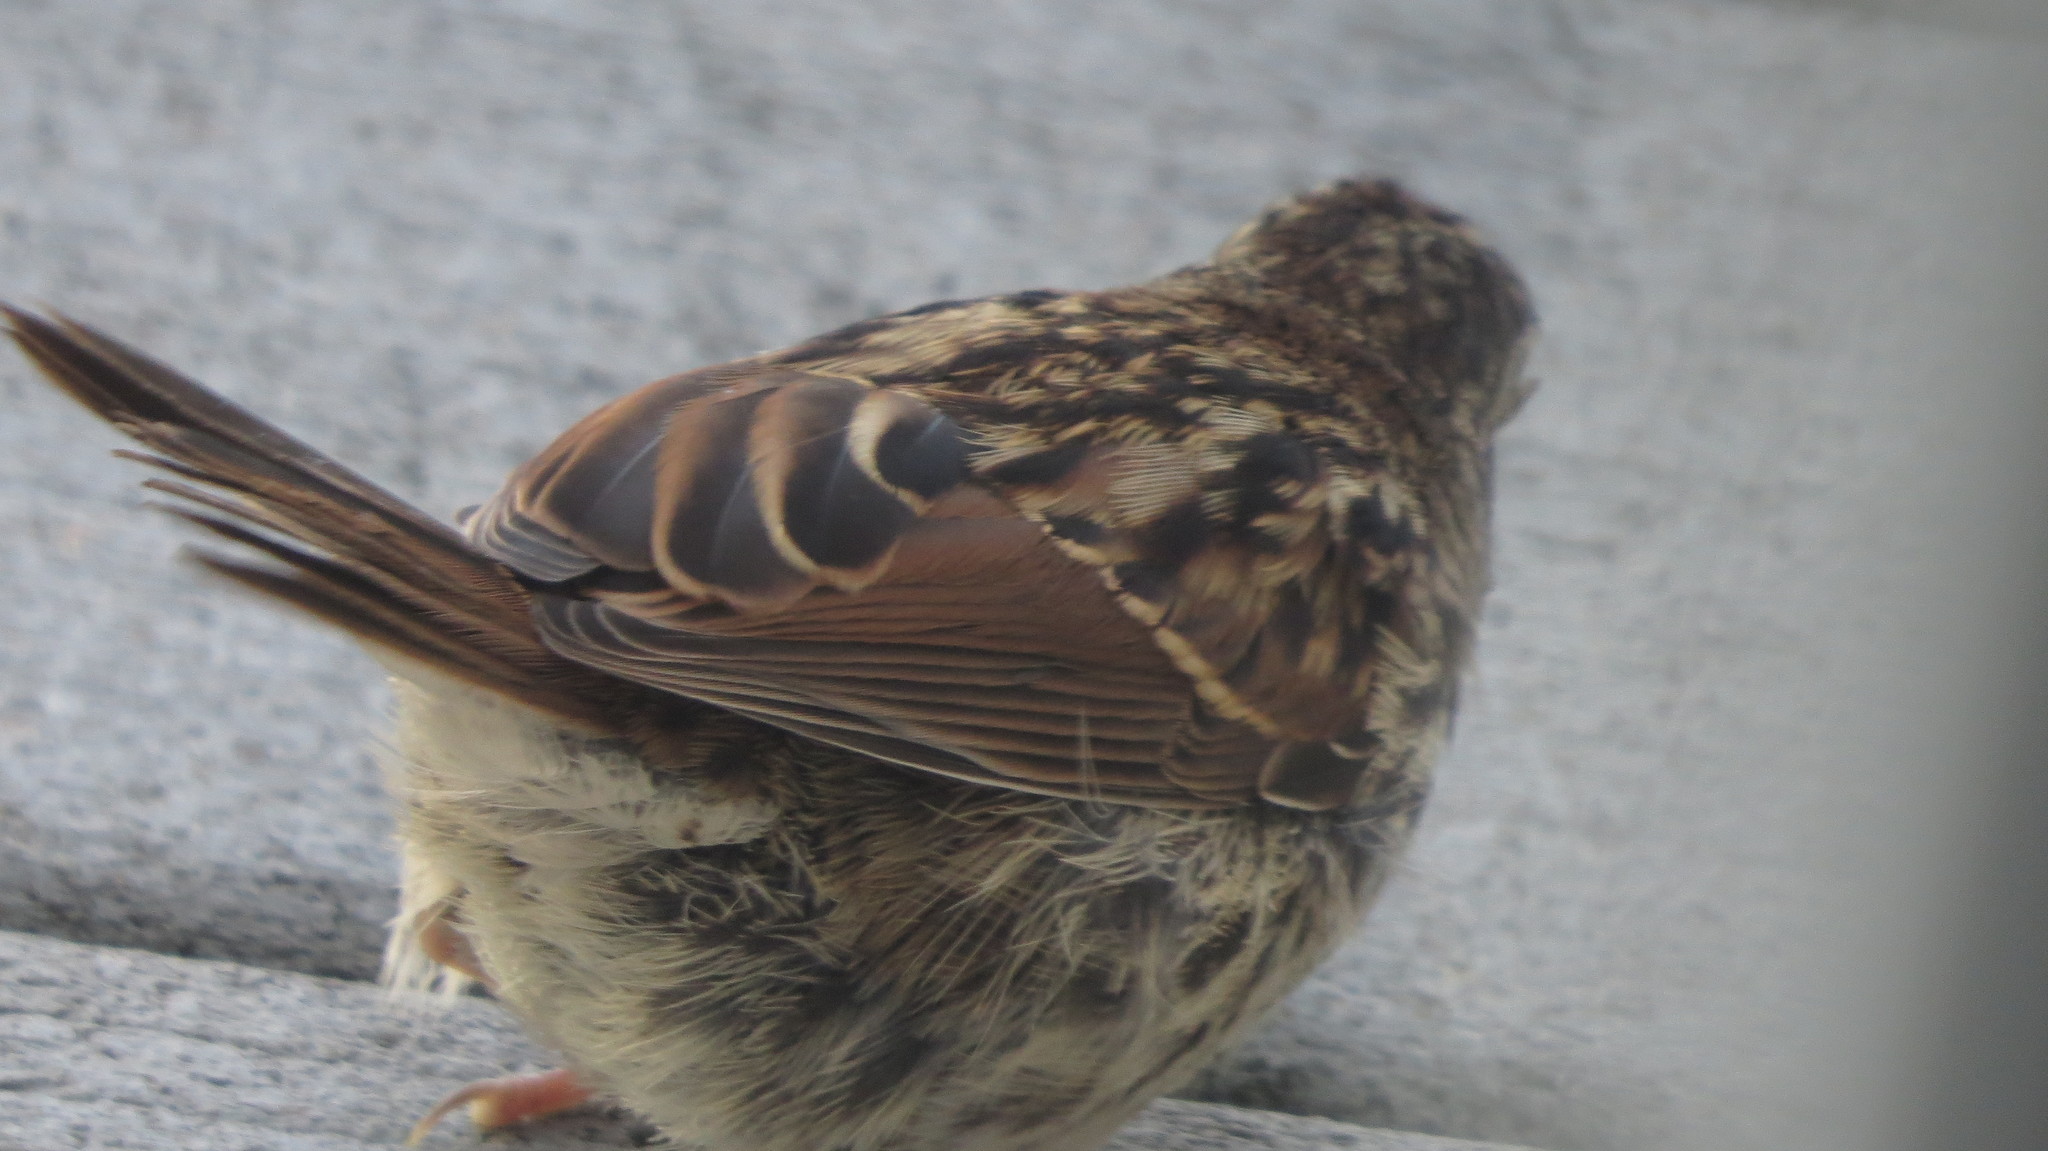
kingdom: Animalia
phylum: Chordata
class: Aves
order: Passeriformes
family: Passerellidae
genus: Melospiza
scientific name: Melospiza melodia
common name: Song sparrow
